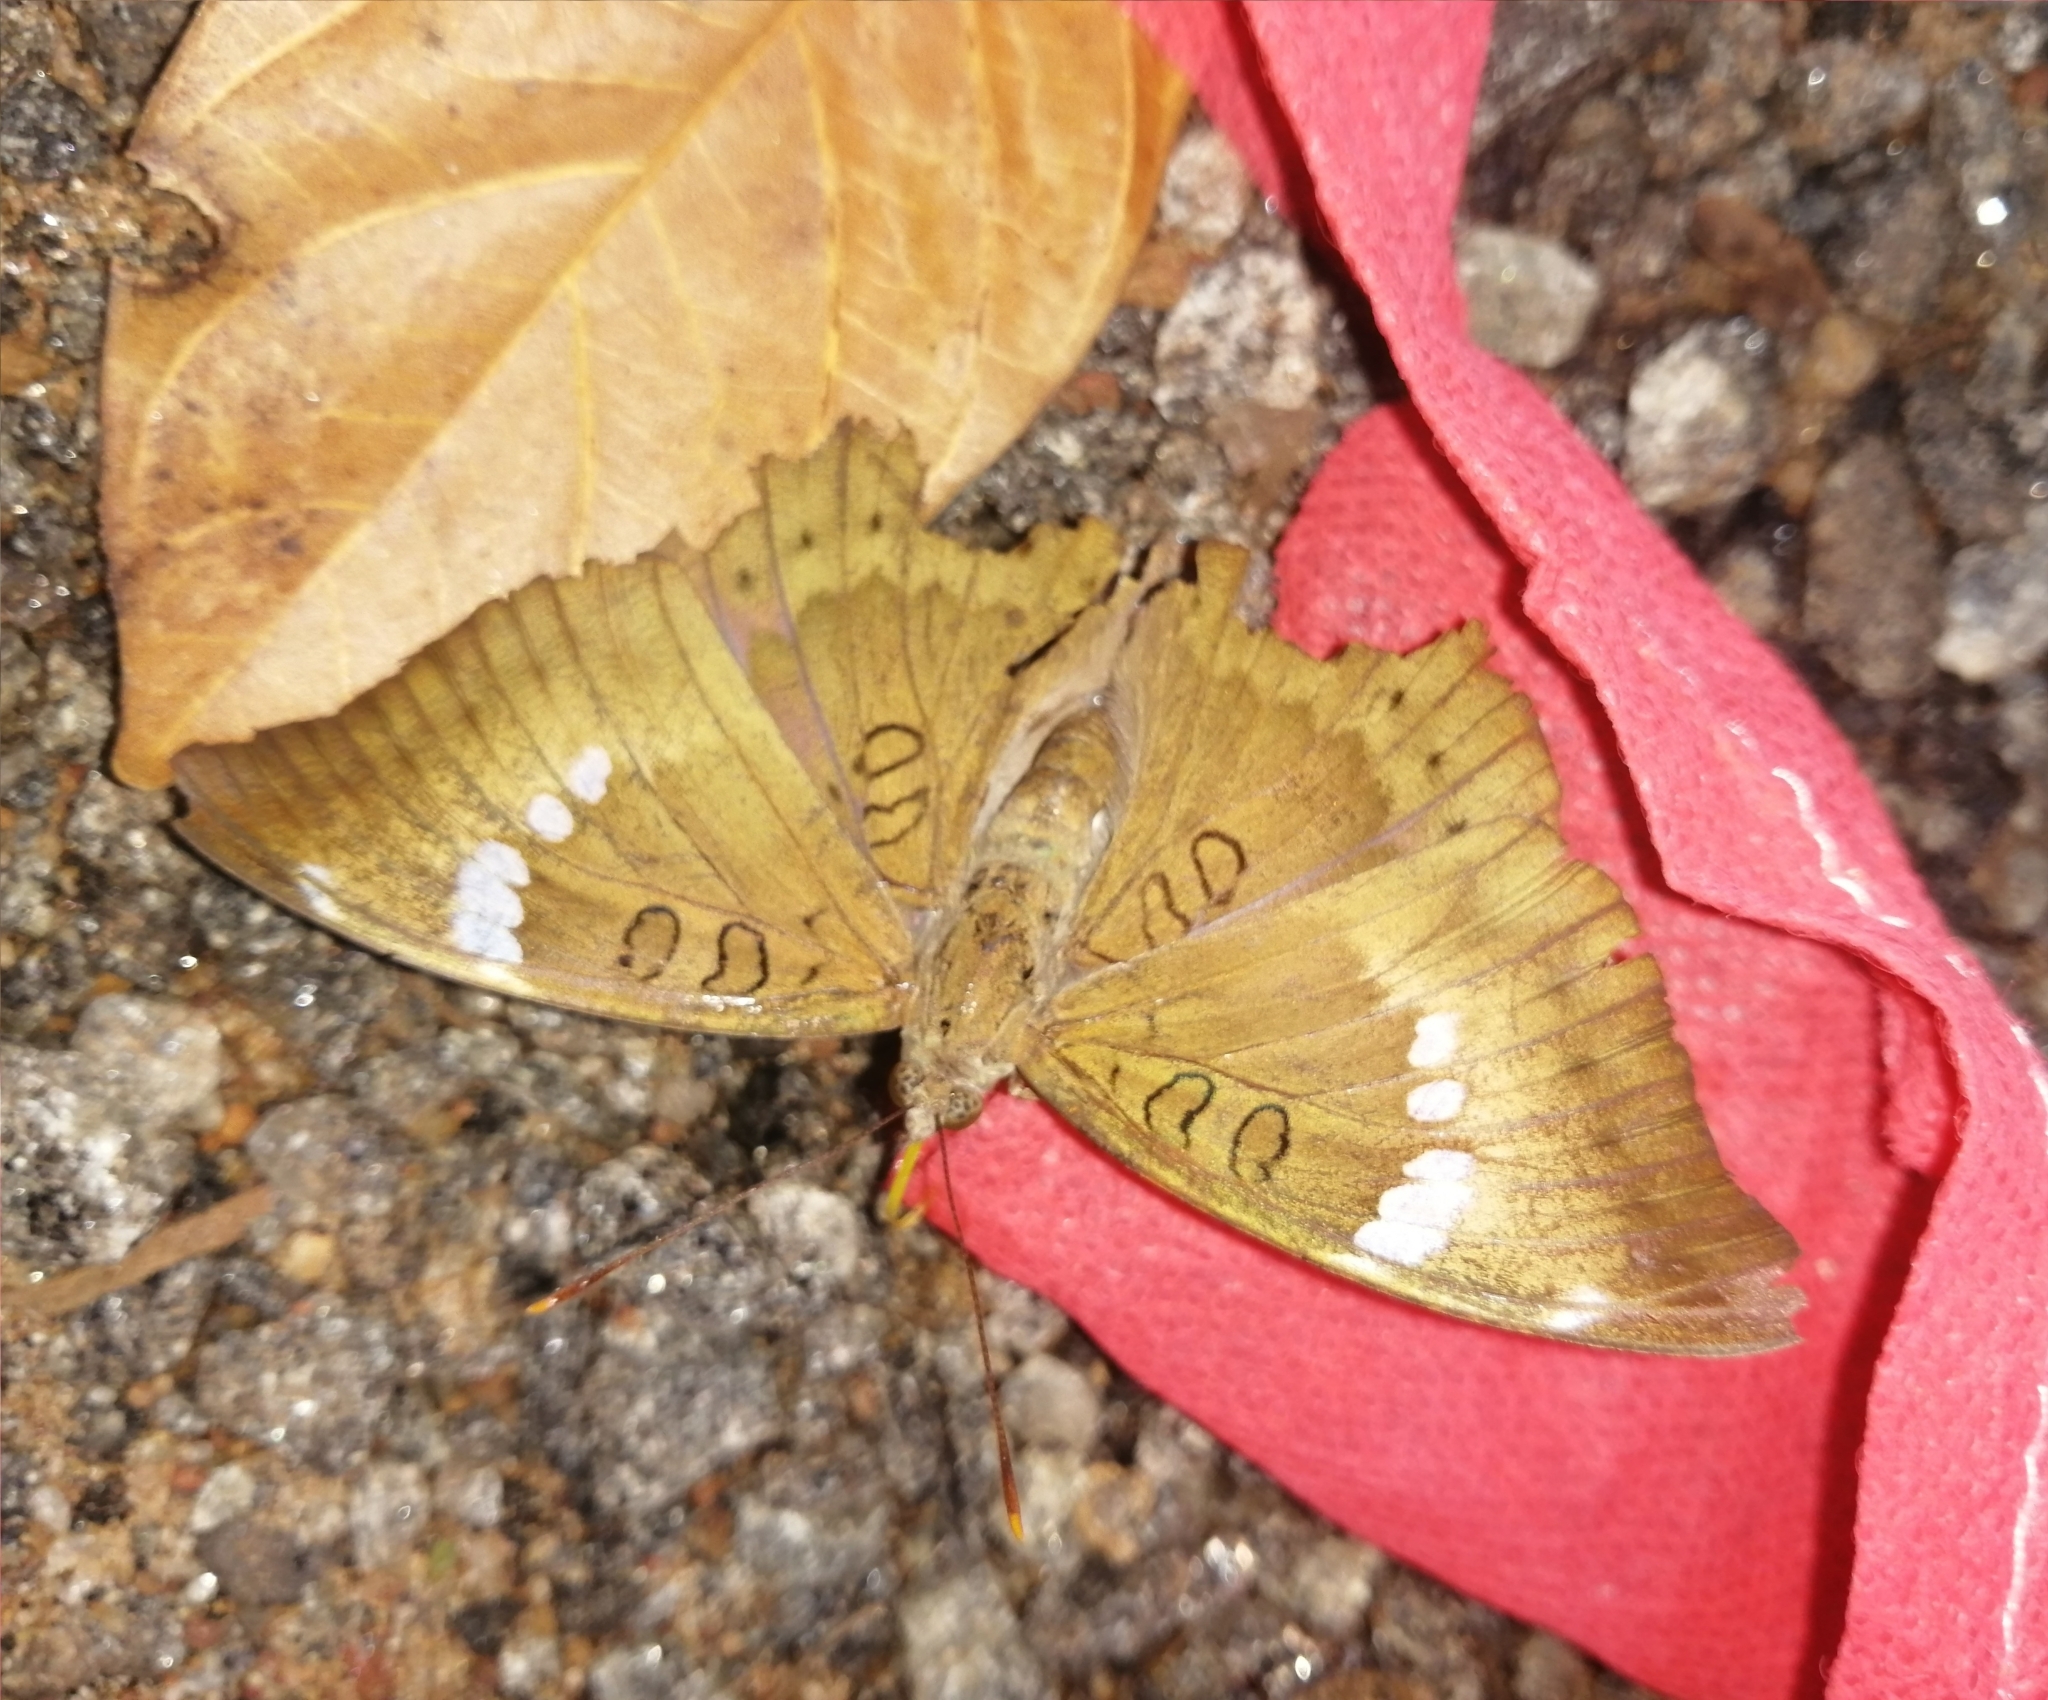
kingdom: Animalia
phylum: Arthropoda
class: Insecta
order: Lepidoptera
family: Nymphalidae
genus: Euthalia
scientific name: Euthalia aconthea
